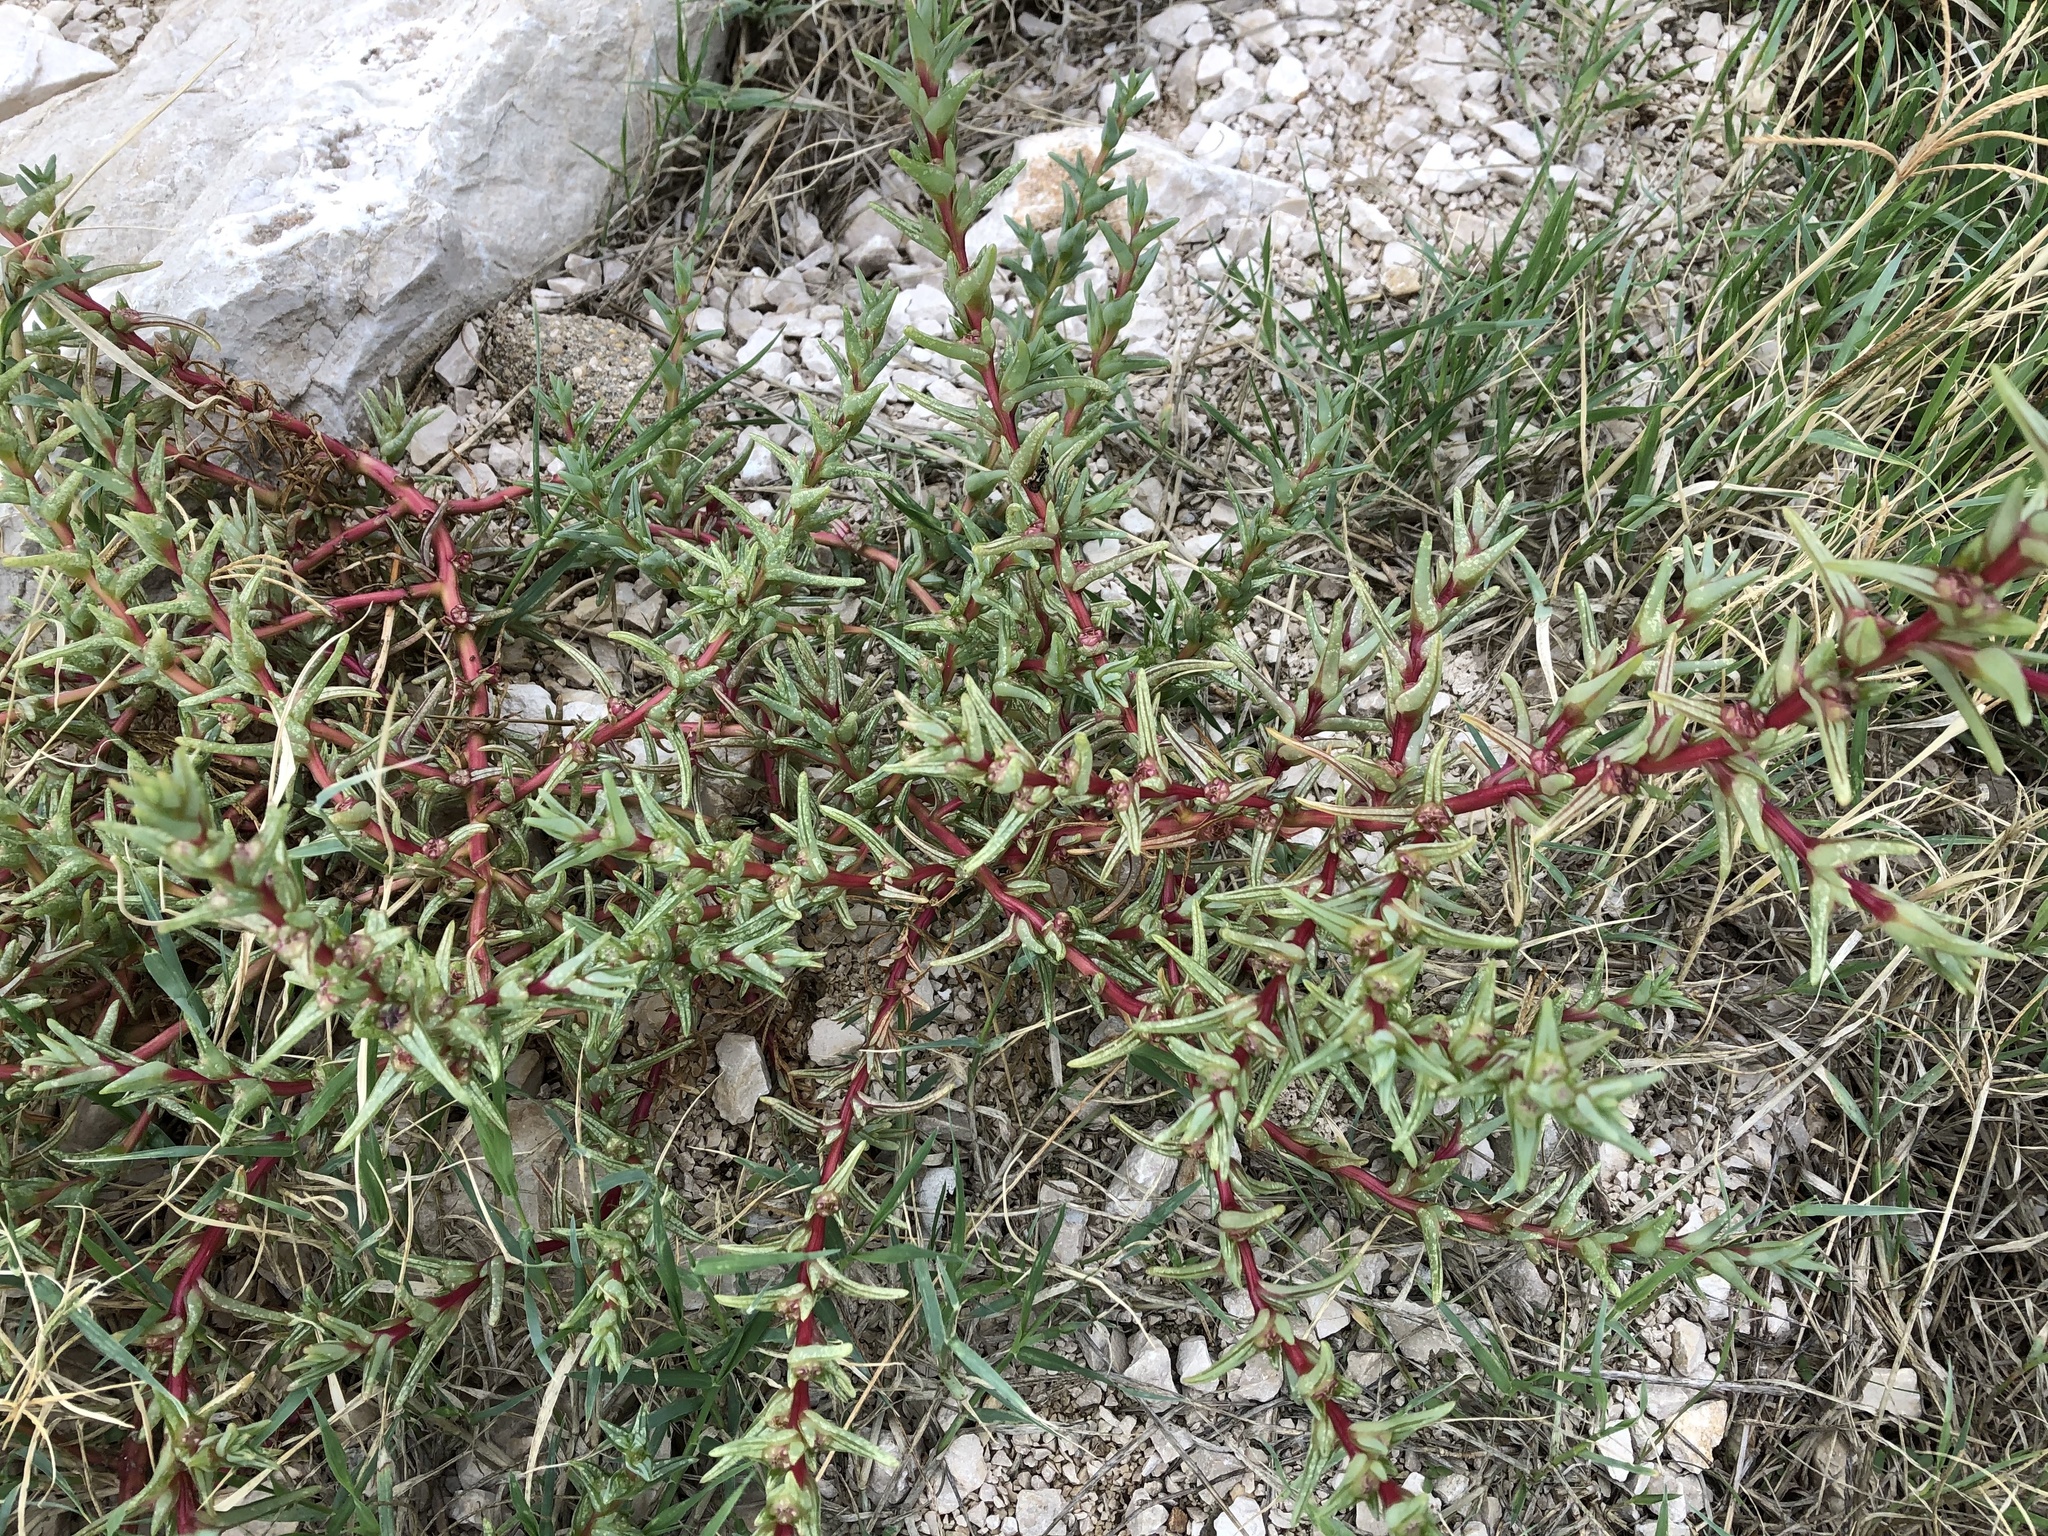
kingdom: Plantae
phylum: Tracheophyta
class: Magnoliopsida
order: Caryophyllales
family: Amaranthaceae
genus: Salsola
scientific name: Salsola soda
